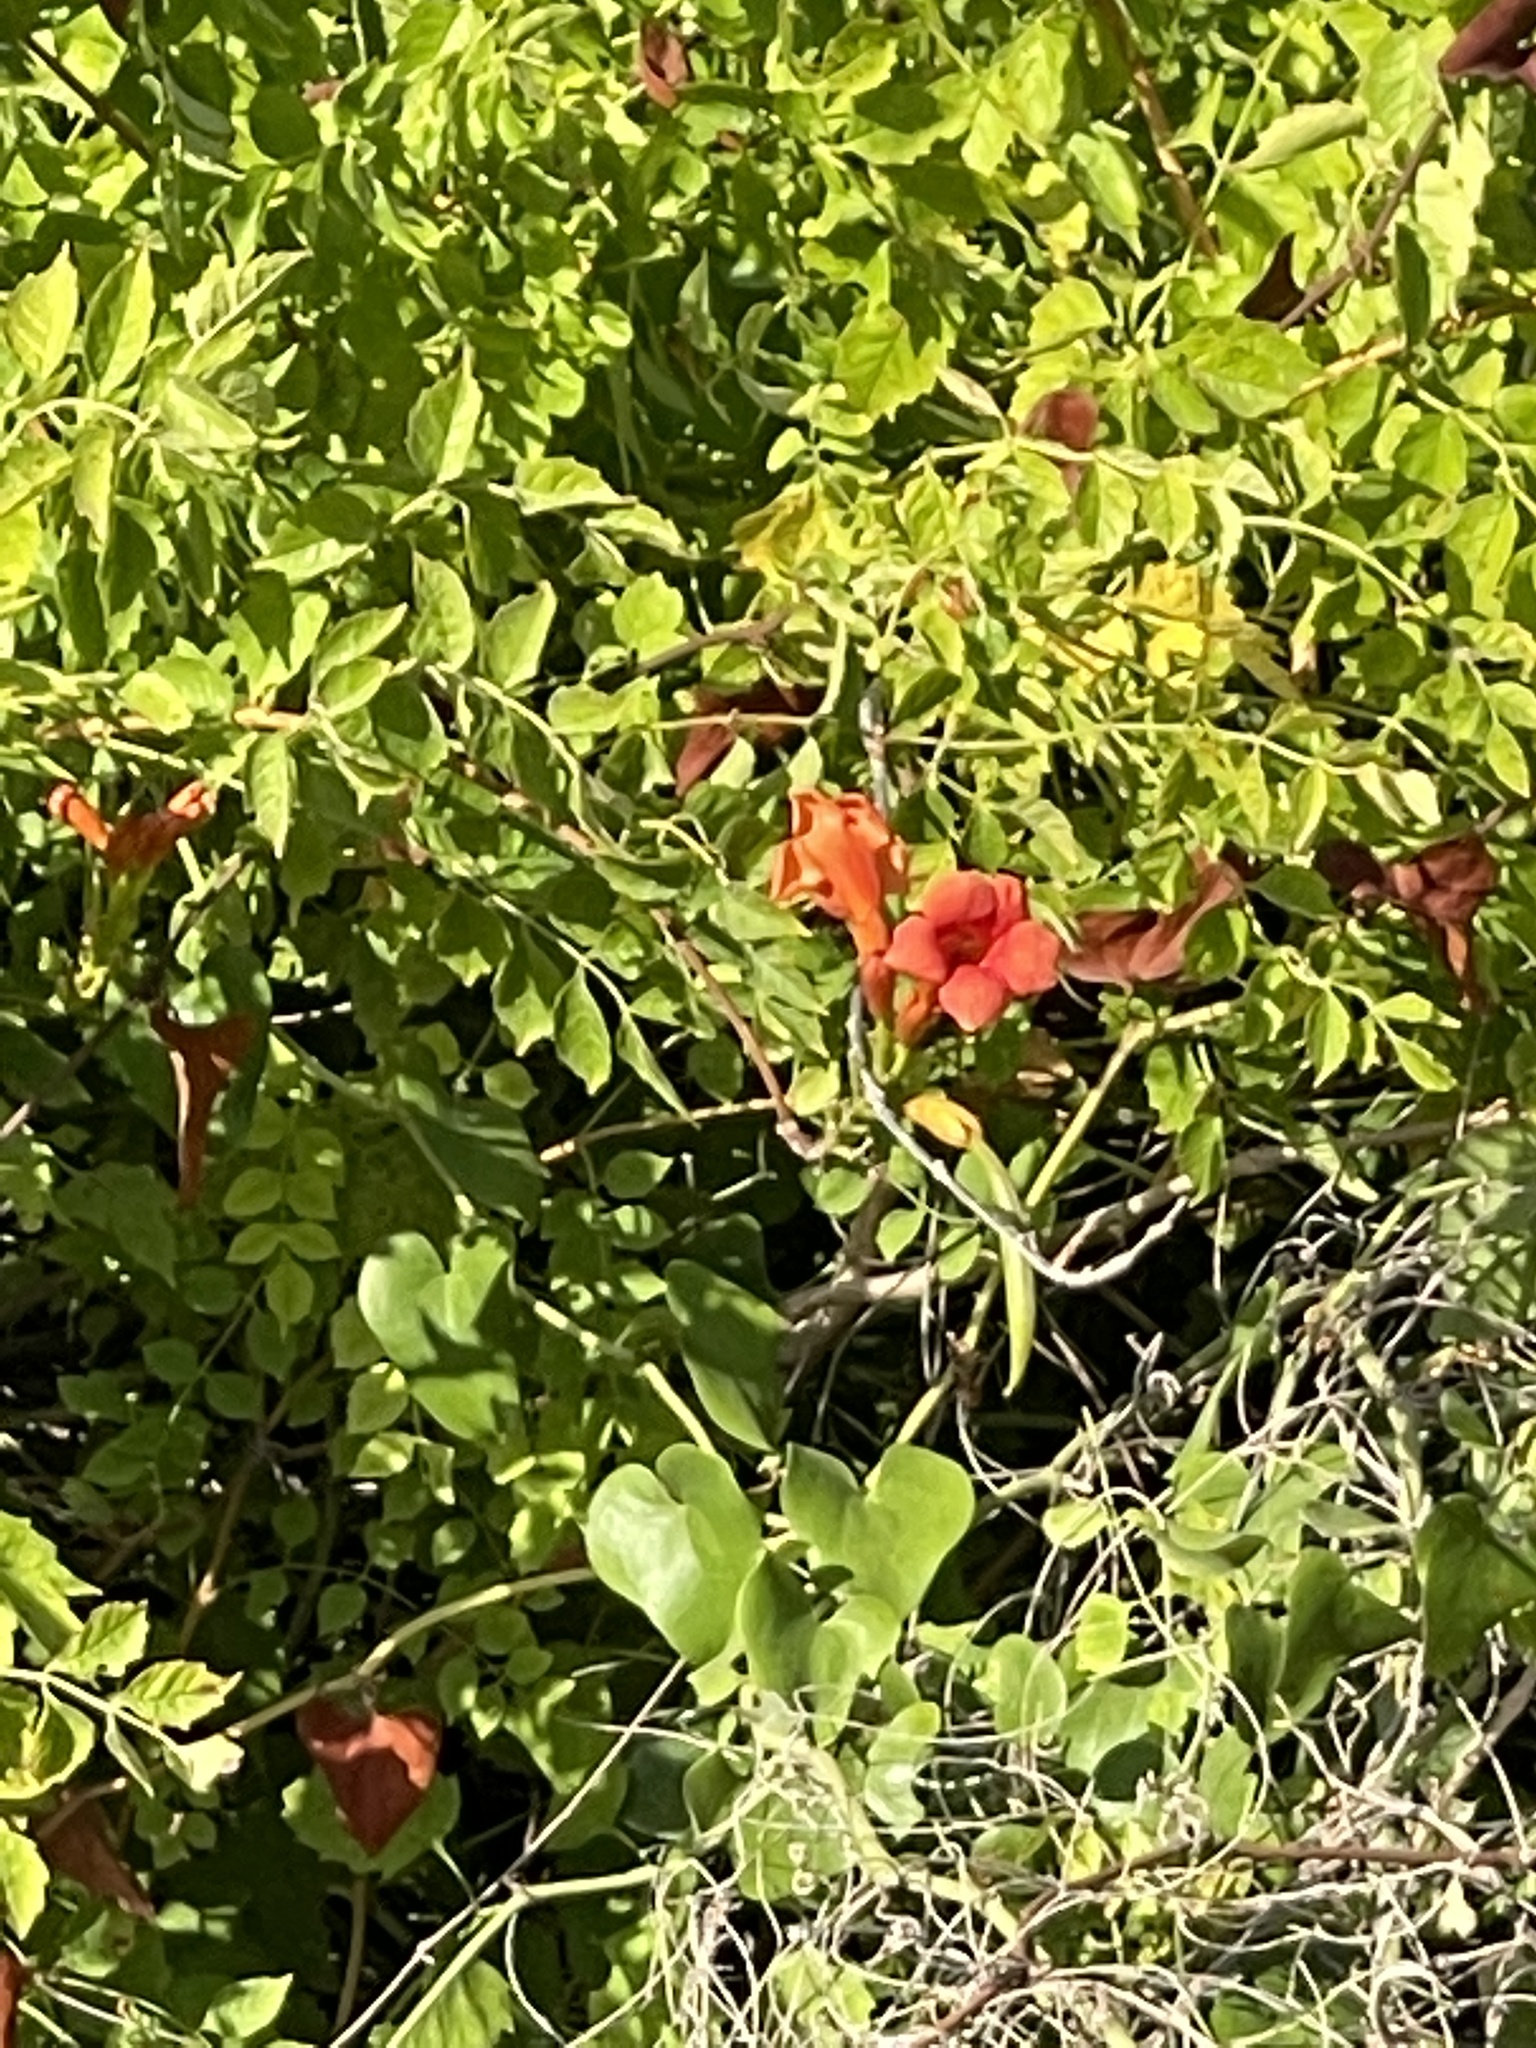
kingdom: Plantae
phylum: Tracheophyta
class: Magnoliopsida
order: Lamiales
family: Bignoniaceae
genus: Campsis
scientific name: Campsis radicans
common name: Trumpet-creeper
